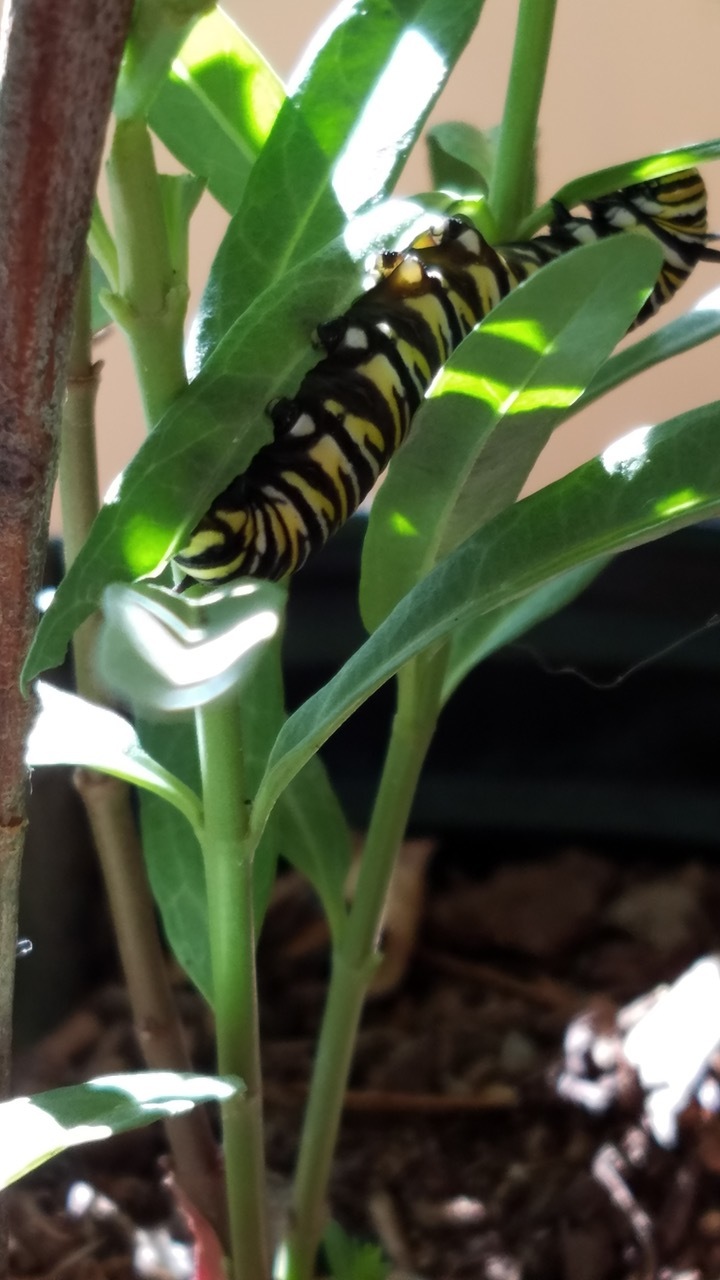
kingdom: Animalia
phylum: Arthropoda
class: Insecta
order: Lepidoptera
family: Nymphalidae
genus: Danaus
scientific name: Danaus plexippus
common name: Monarch
